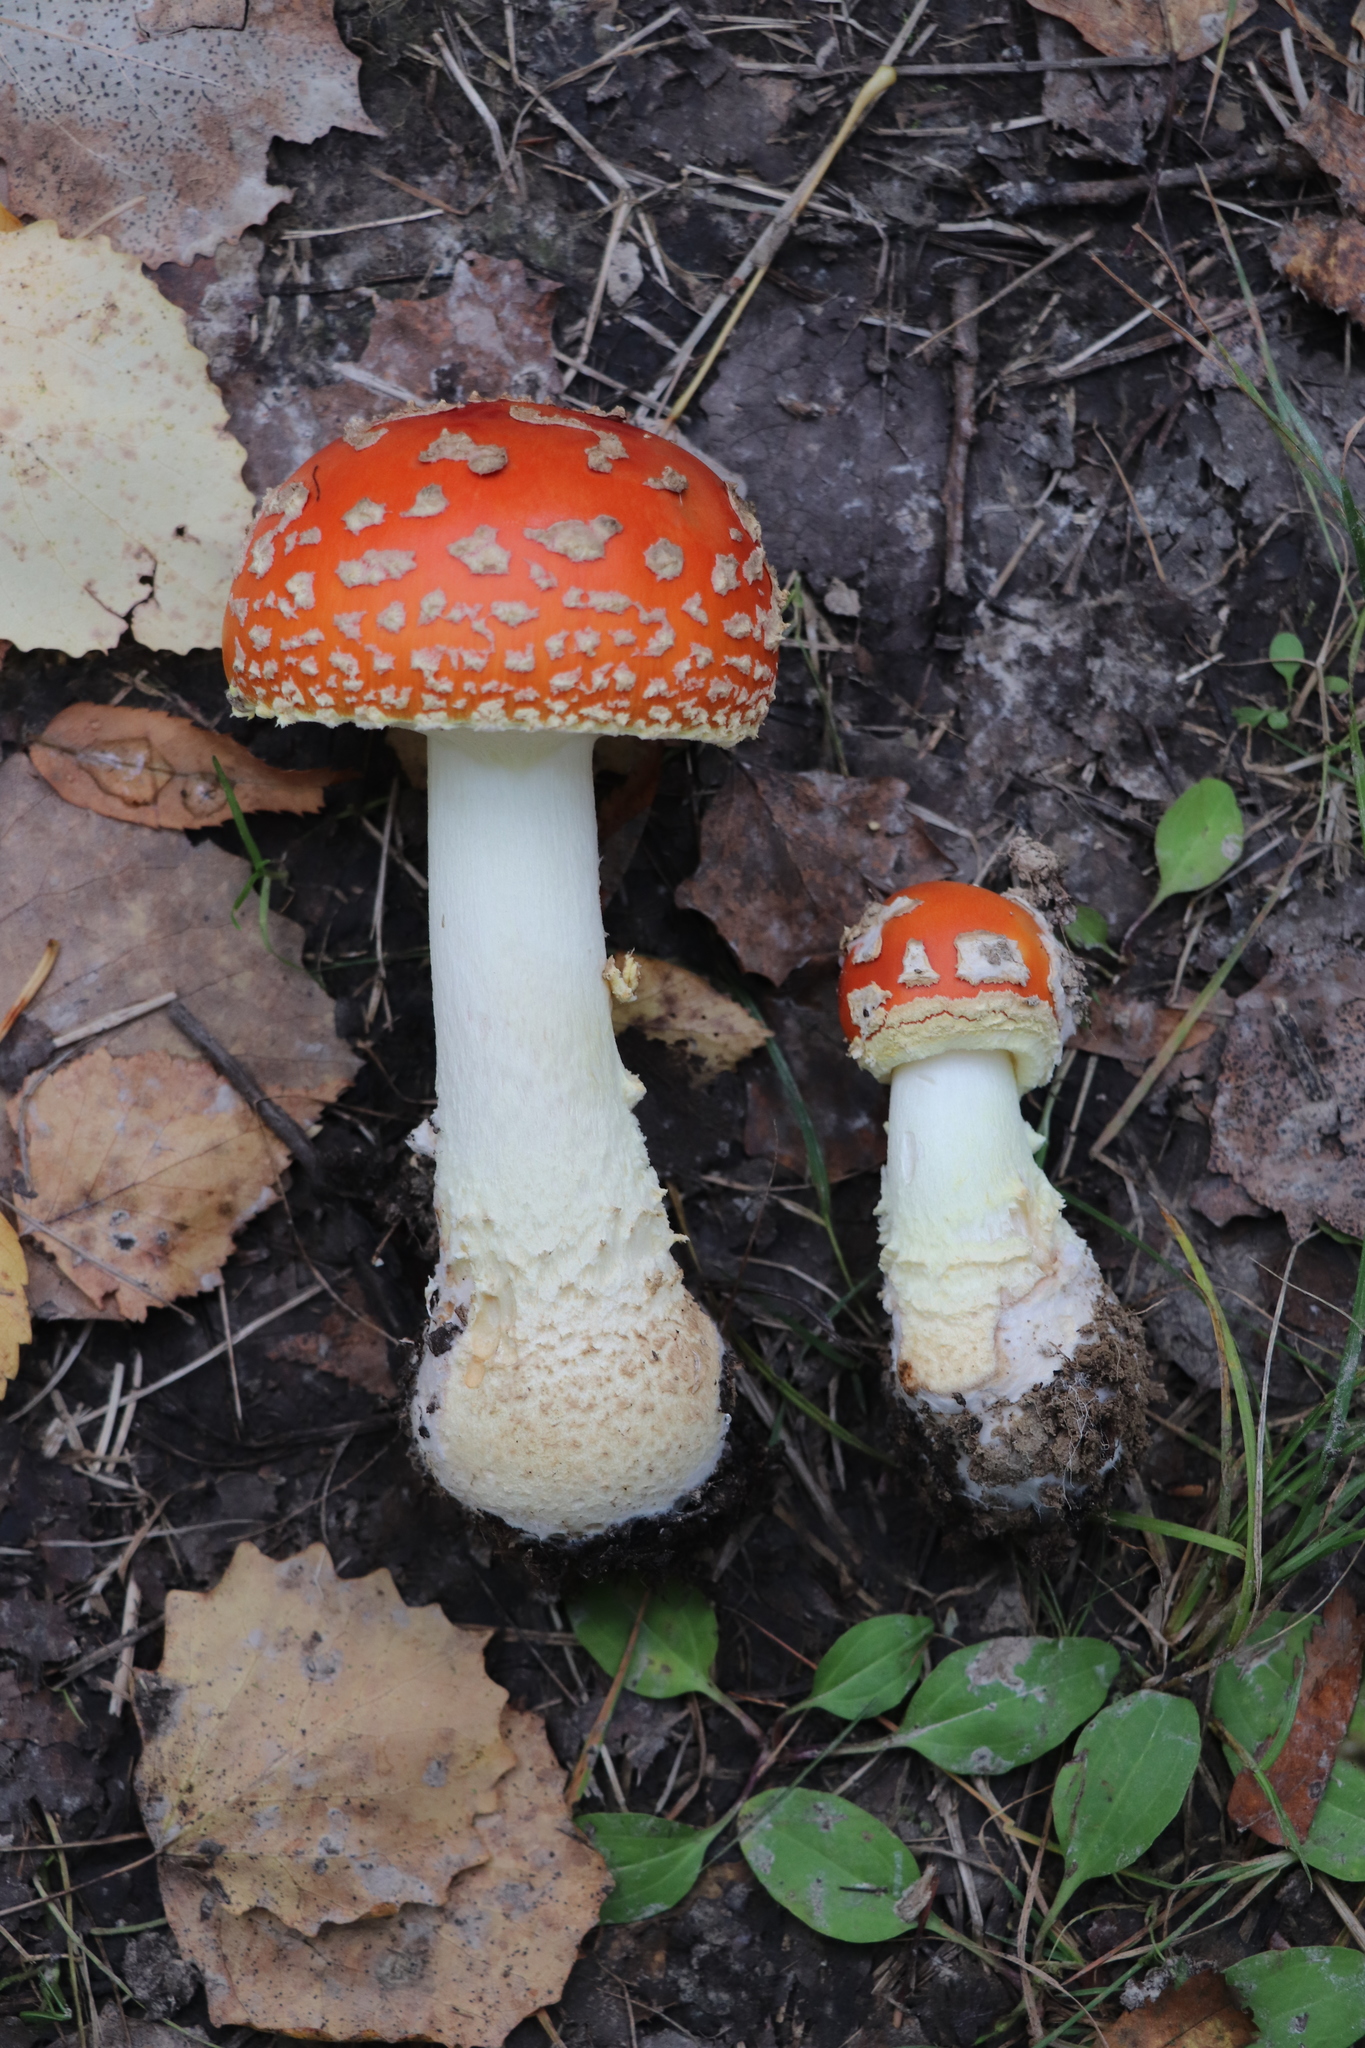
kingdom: Fungi
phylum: Basidiomycota
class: Agaricomycetes
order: Agaricales
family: Amanitaceae
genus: Amanita
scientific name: Amanita muscaria
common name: Fly agaric
